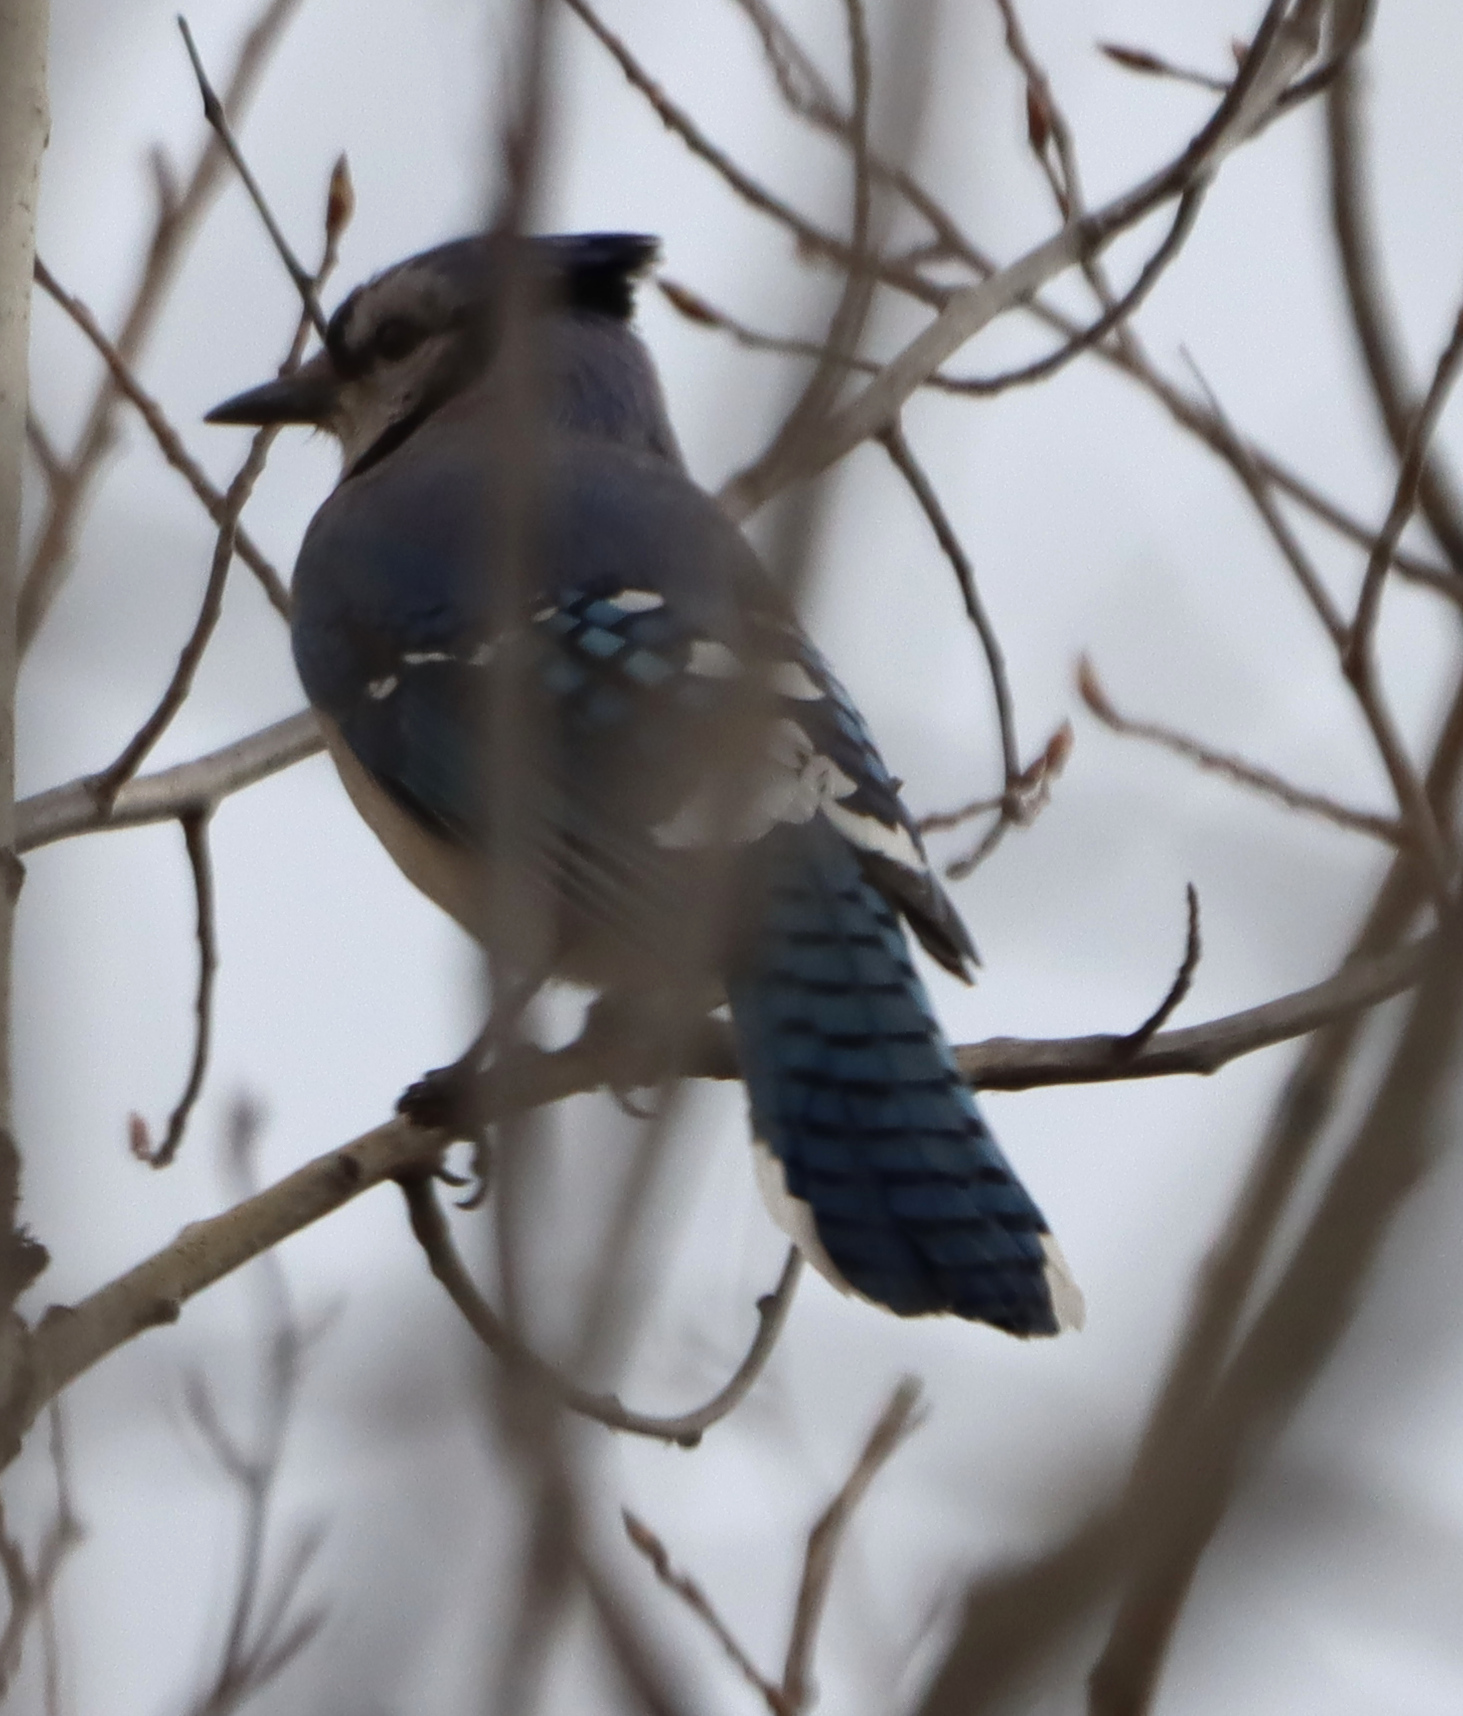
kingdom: Animalia
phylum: Chordata
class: Aves
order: Passeriformes
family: Corvidae
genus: Cyanocitta
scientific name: Cyanocitta cristata
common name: Blue jay
